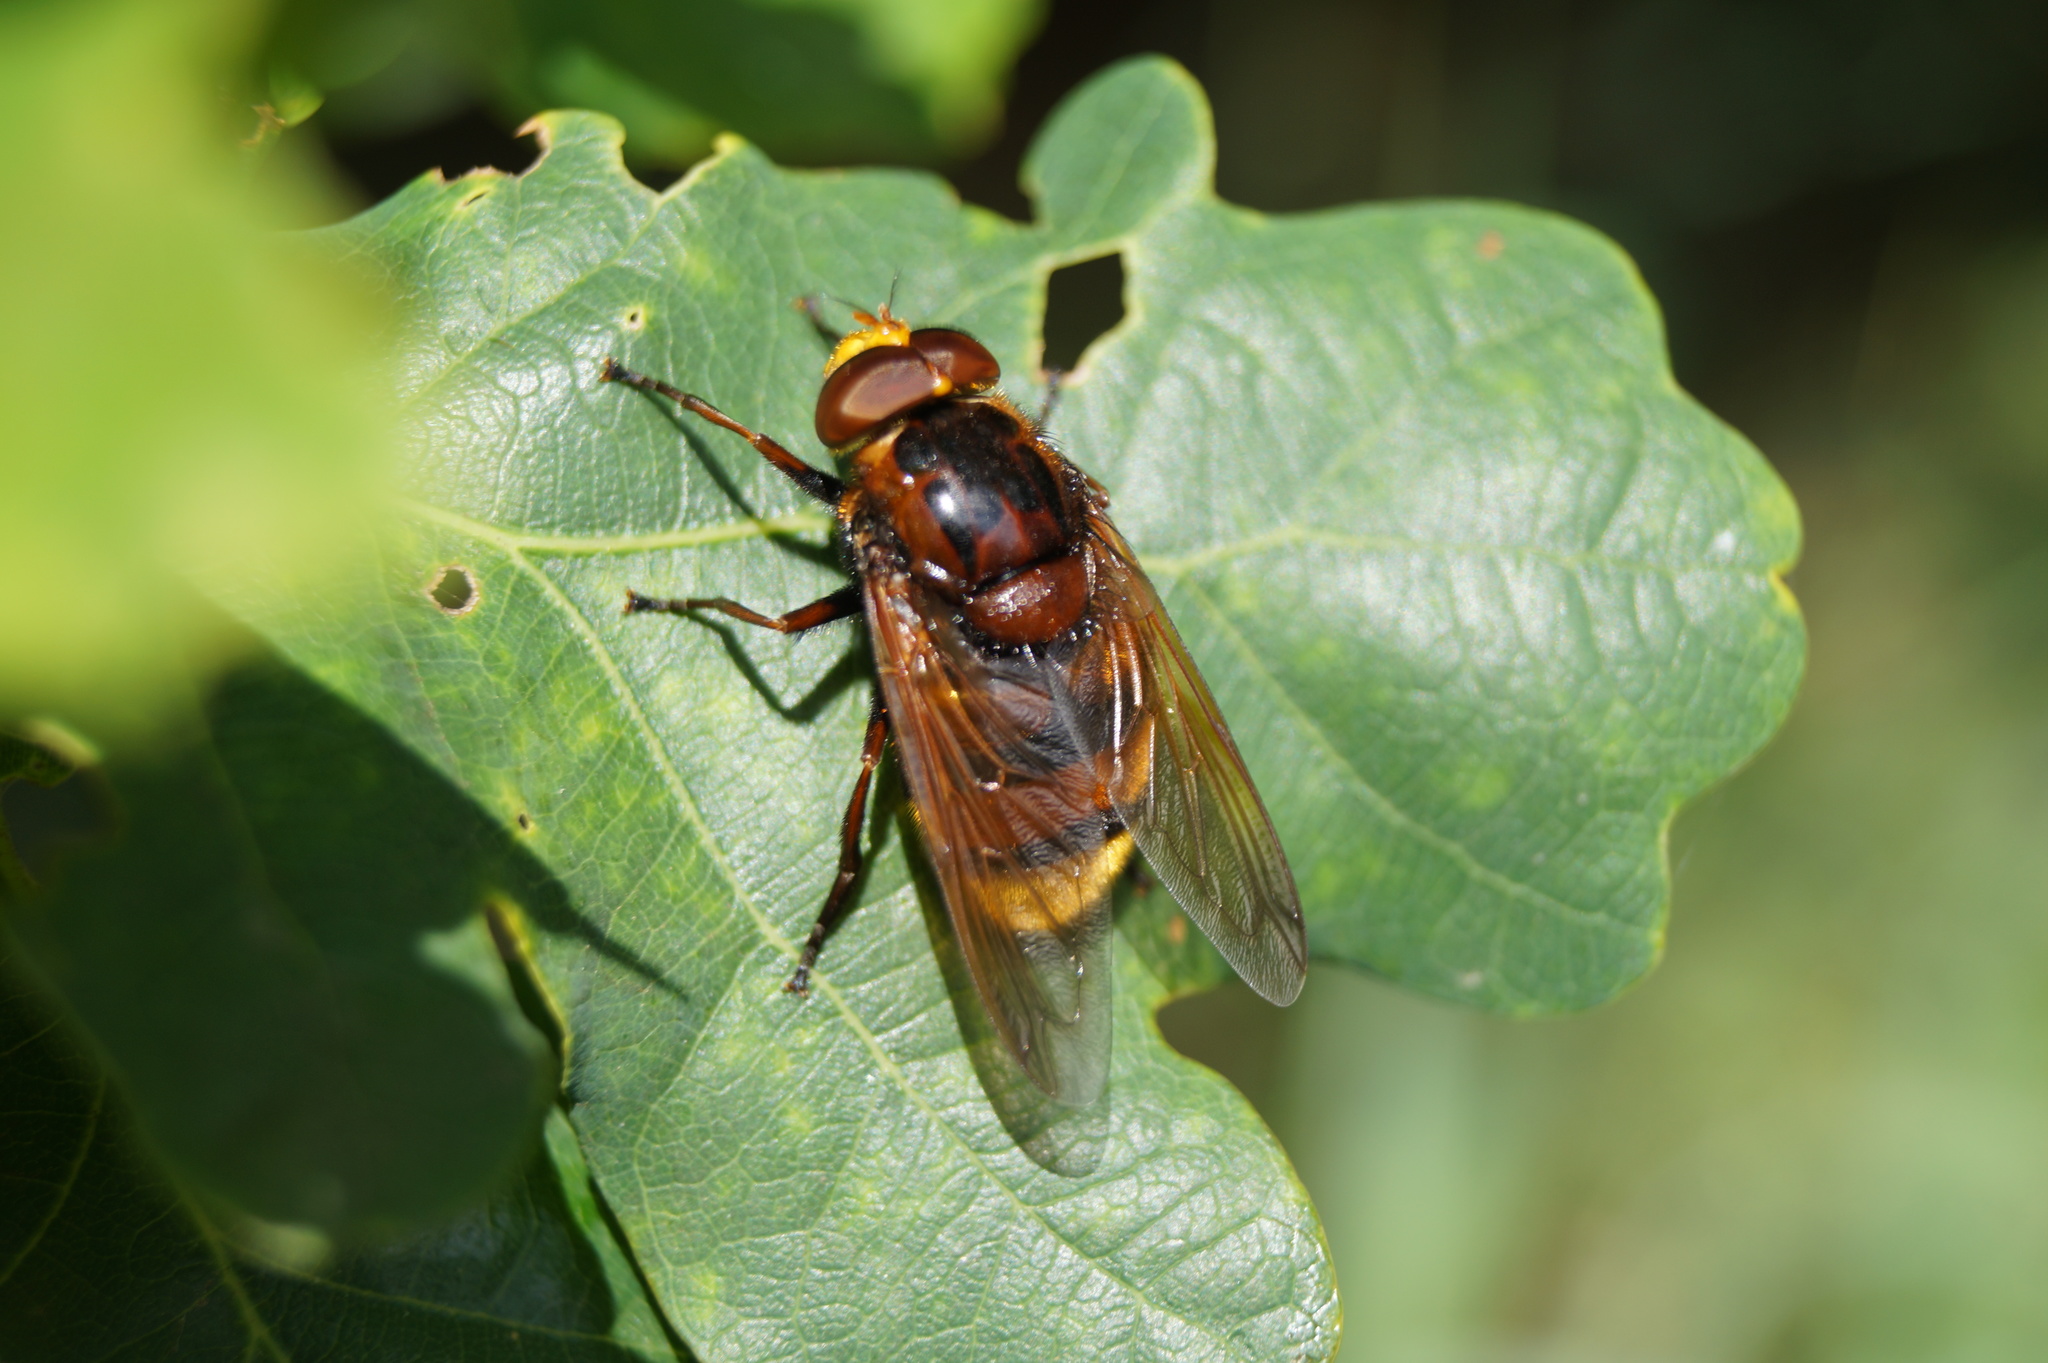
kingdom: Animalia
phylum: Arthropoda
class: Insecta
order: Diptera
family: Syrphidae
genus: Volucella
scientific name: Volucella zonaria
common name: Hornet hoverfly
